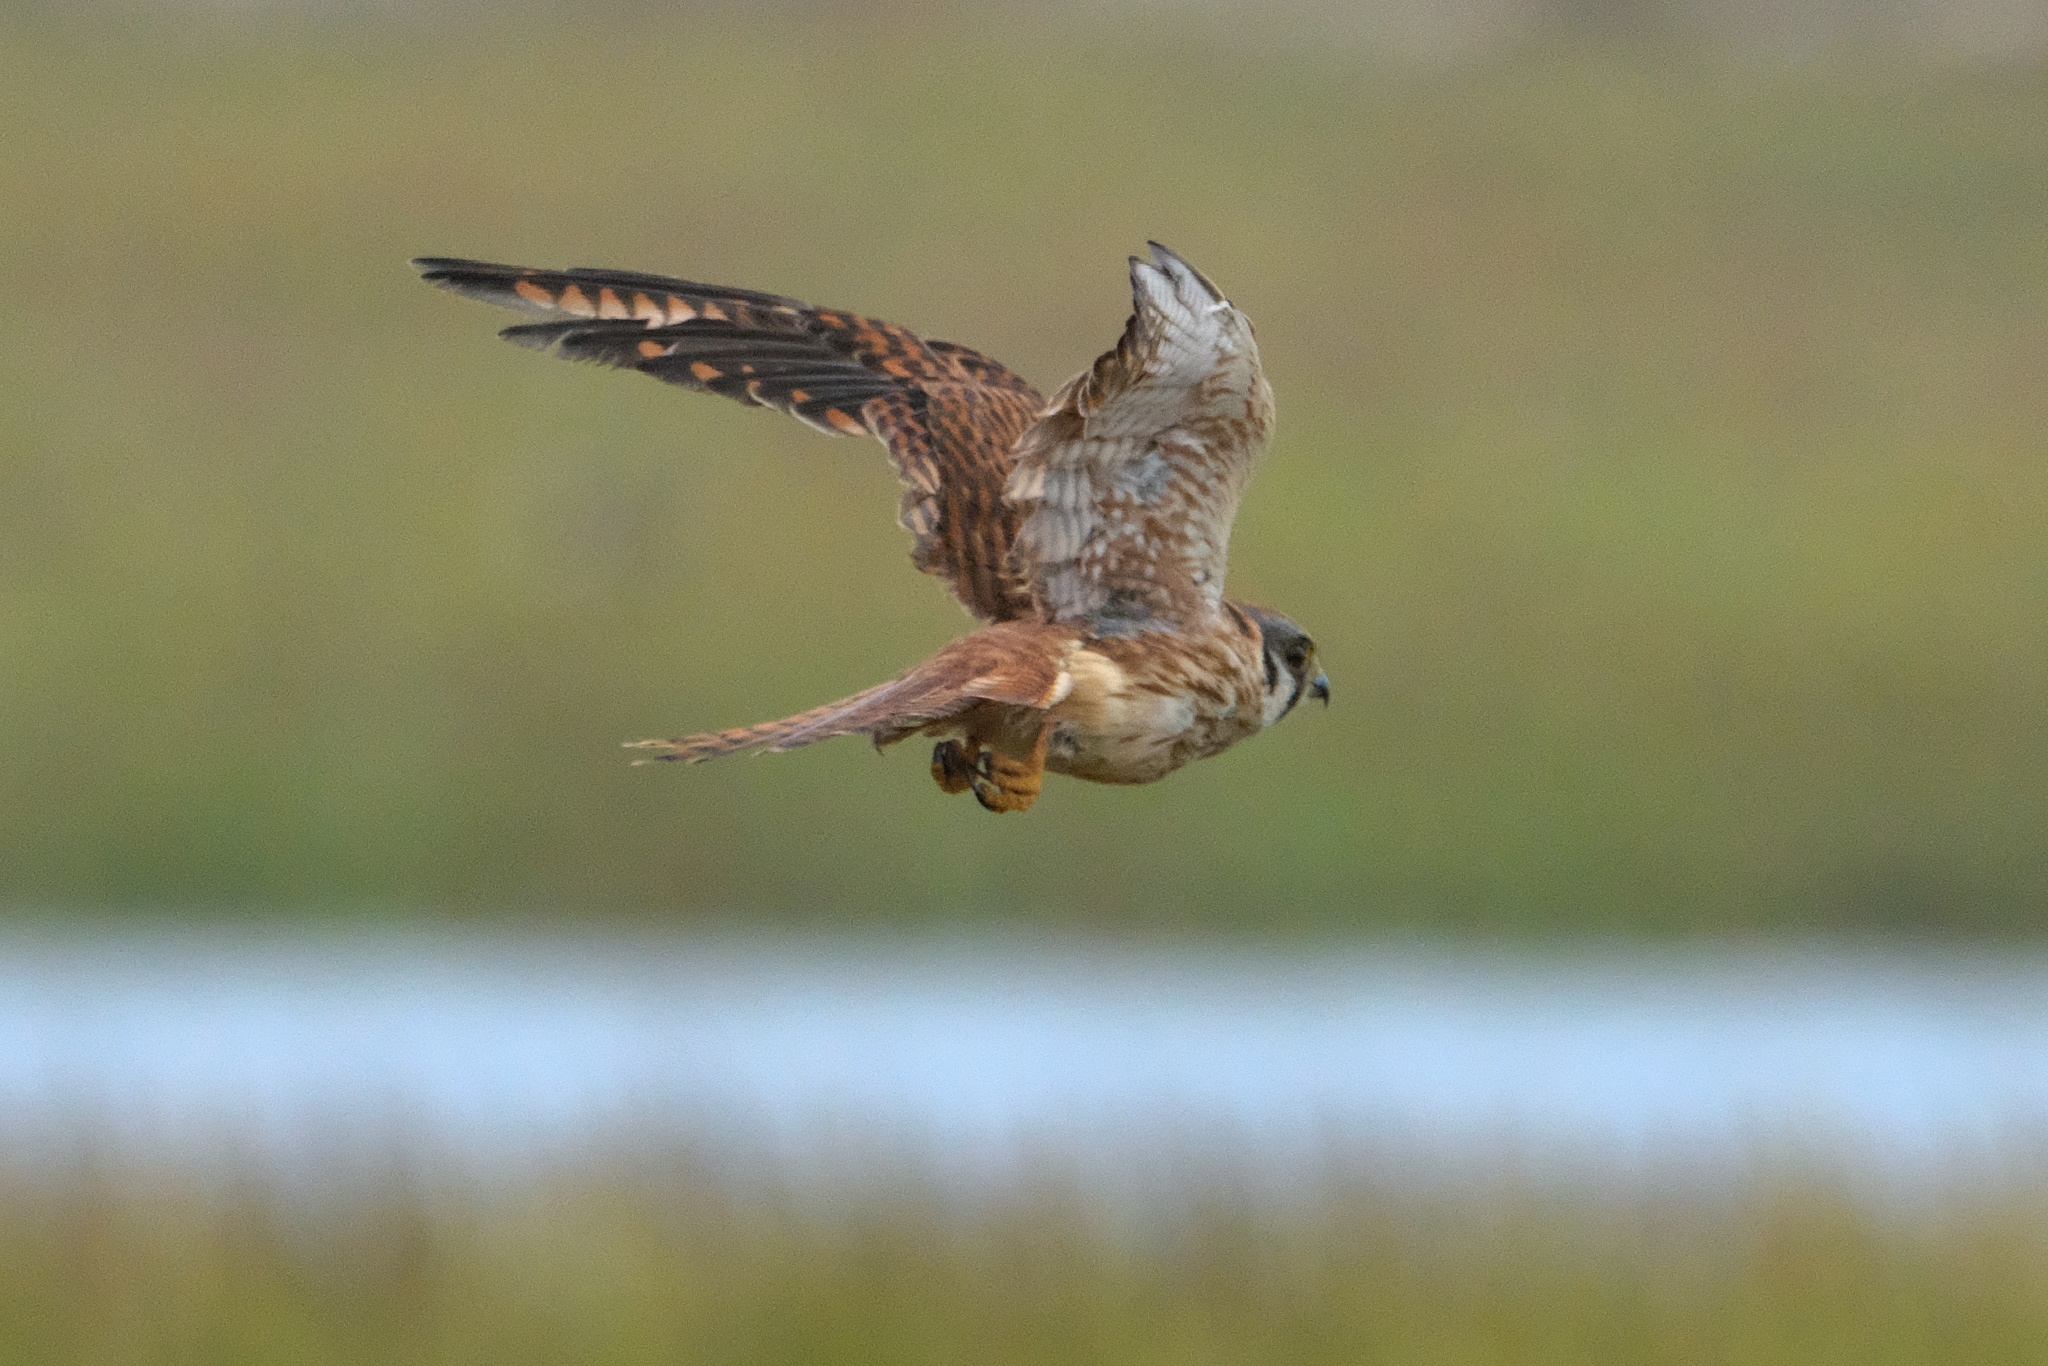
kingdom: Animalia
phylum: Chordata
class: Aves
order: Falconiformes
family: Falconidae
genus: Falco
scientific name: Falco sparverius
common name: American kestrel
